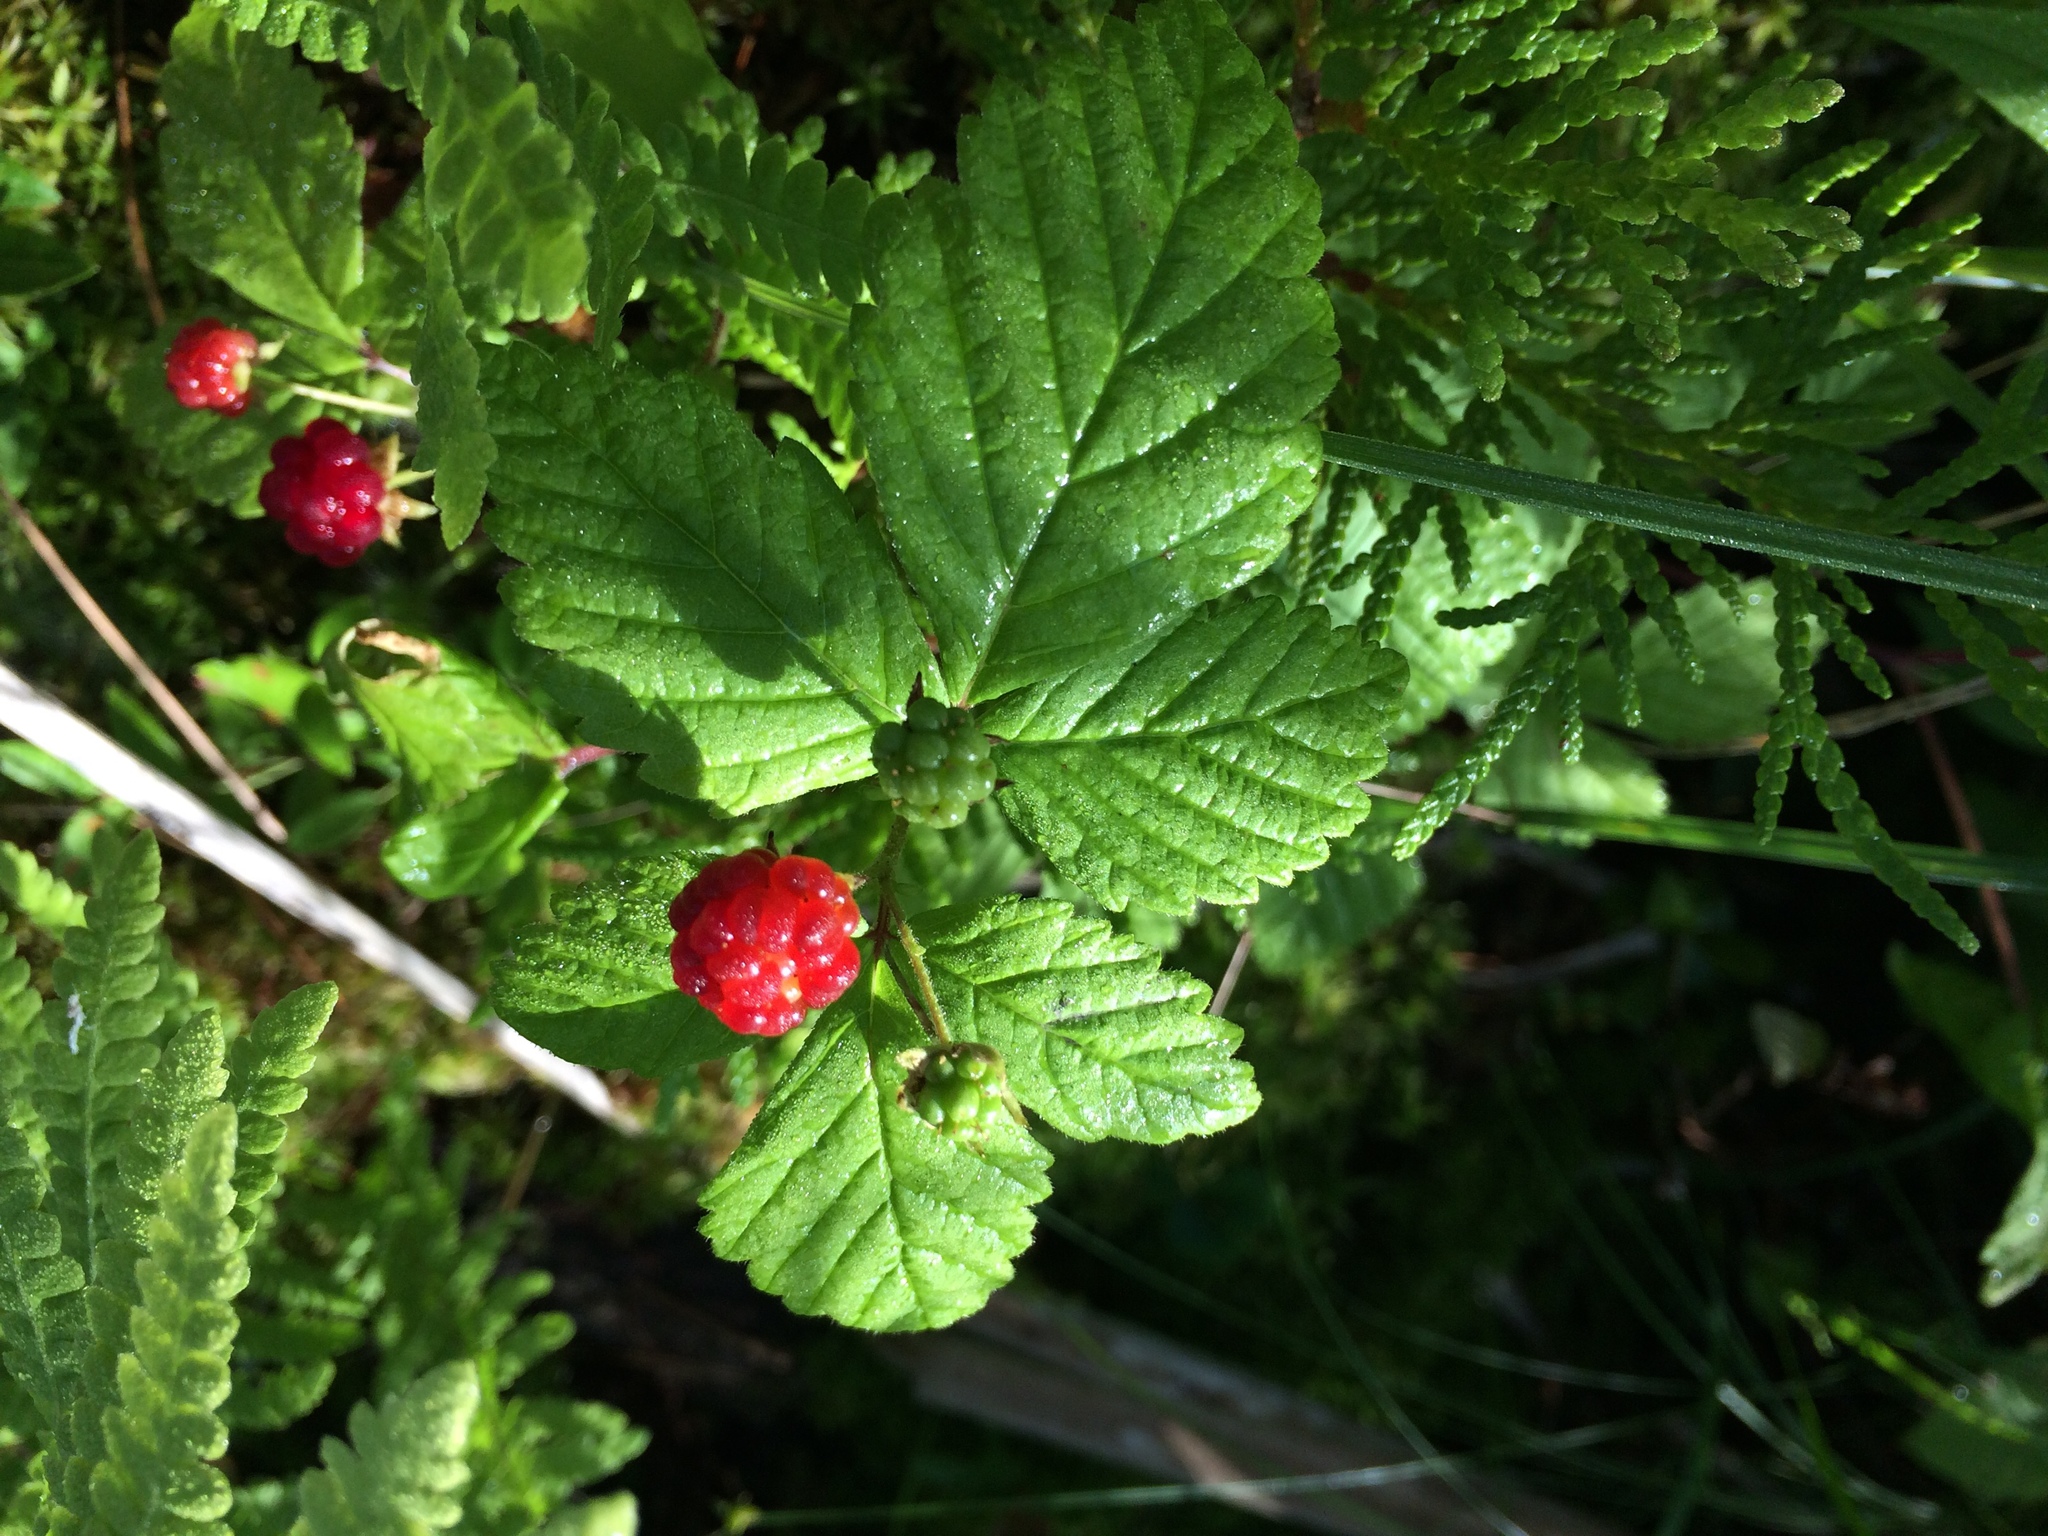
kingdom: Plantae
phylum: Tracheophyta
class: Magnoliopsida
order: Rosales
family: Rosaceae
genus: Rubus
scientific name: Rubus pubescens
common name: Dwarf raspberry
